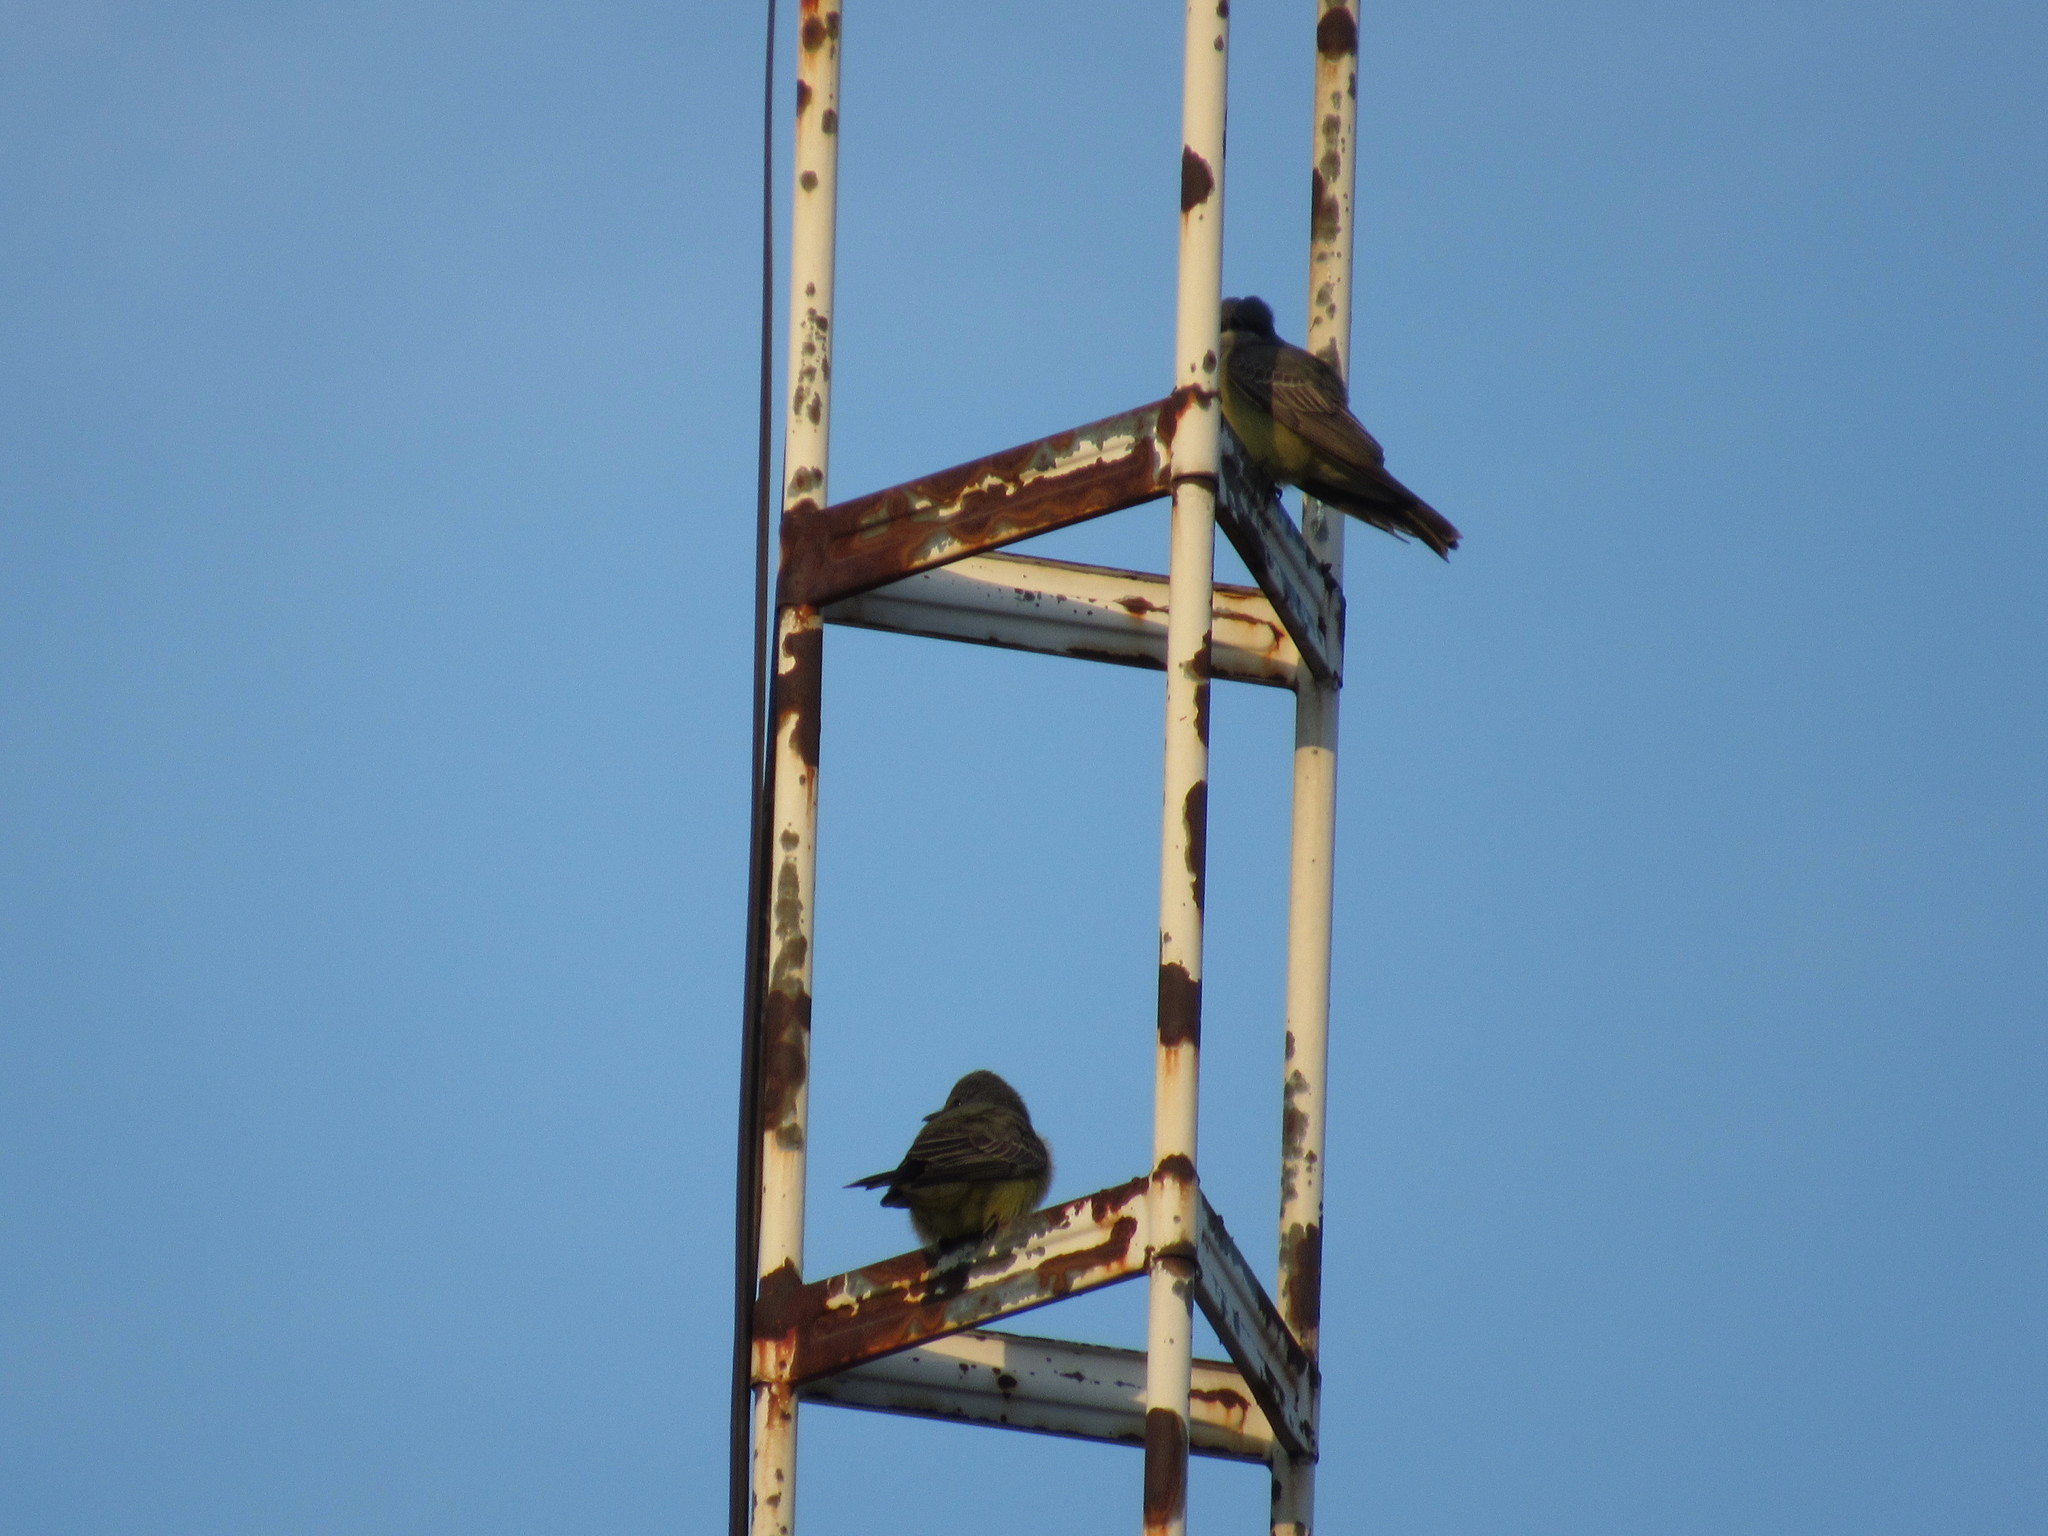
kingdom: Animalia
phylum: Chordata
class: Aves
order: Passeriformes
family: Tyrannidae
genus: Tyrannus
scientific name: Tyrannus vociferans
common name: Cassin's kingbird
